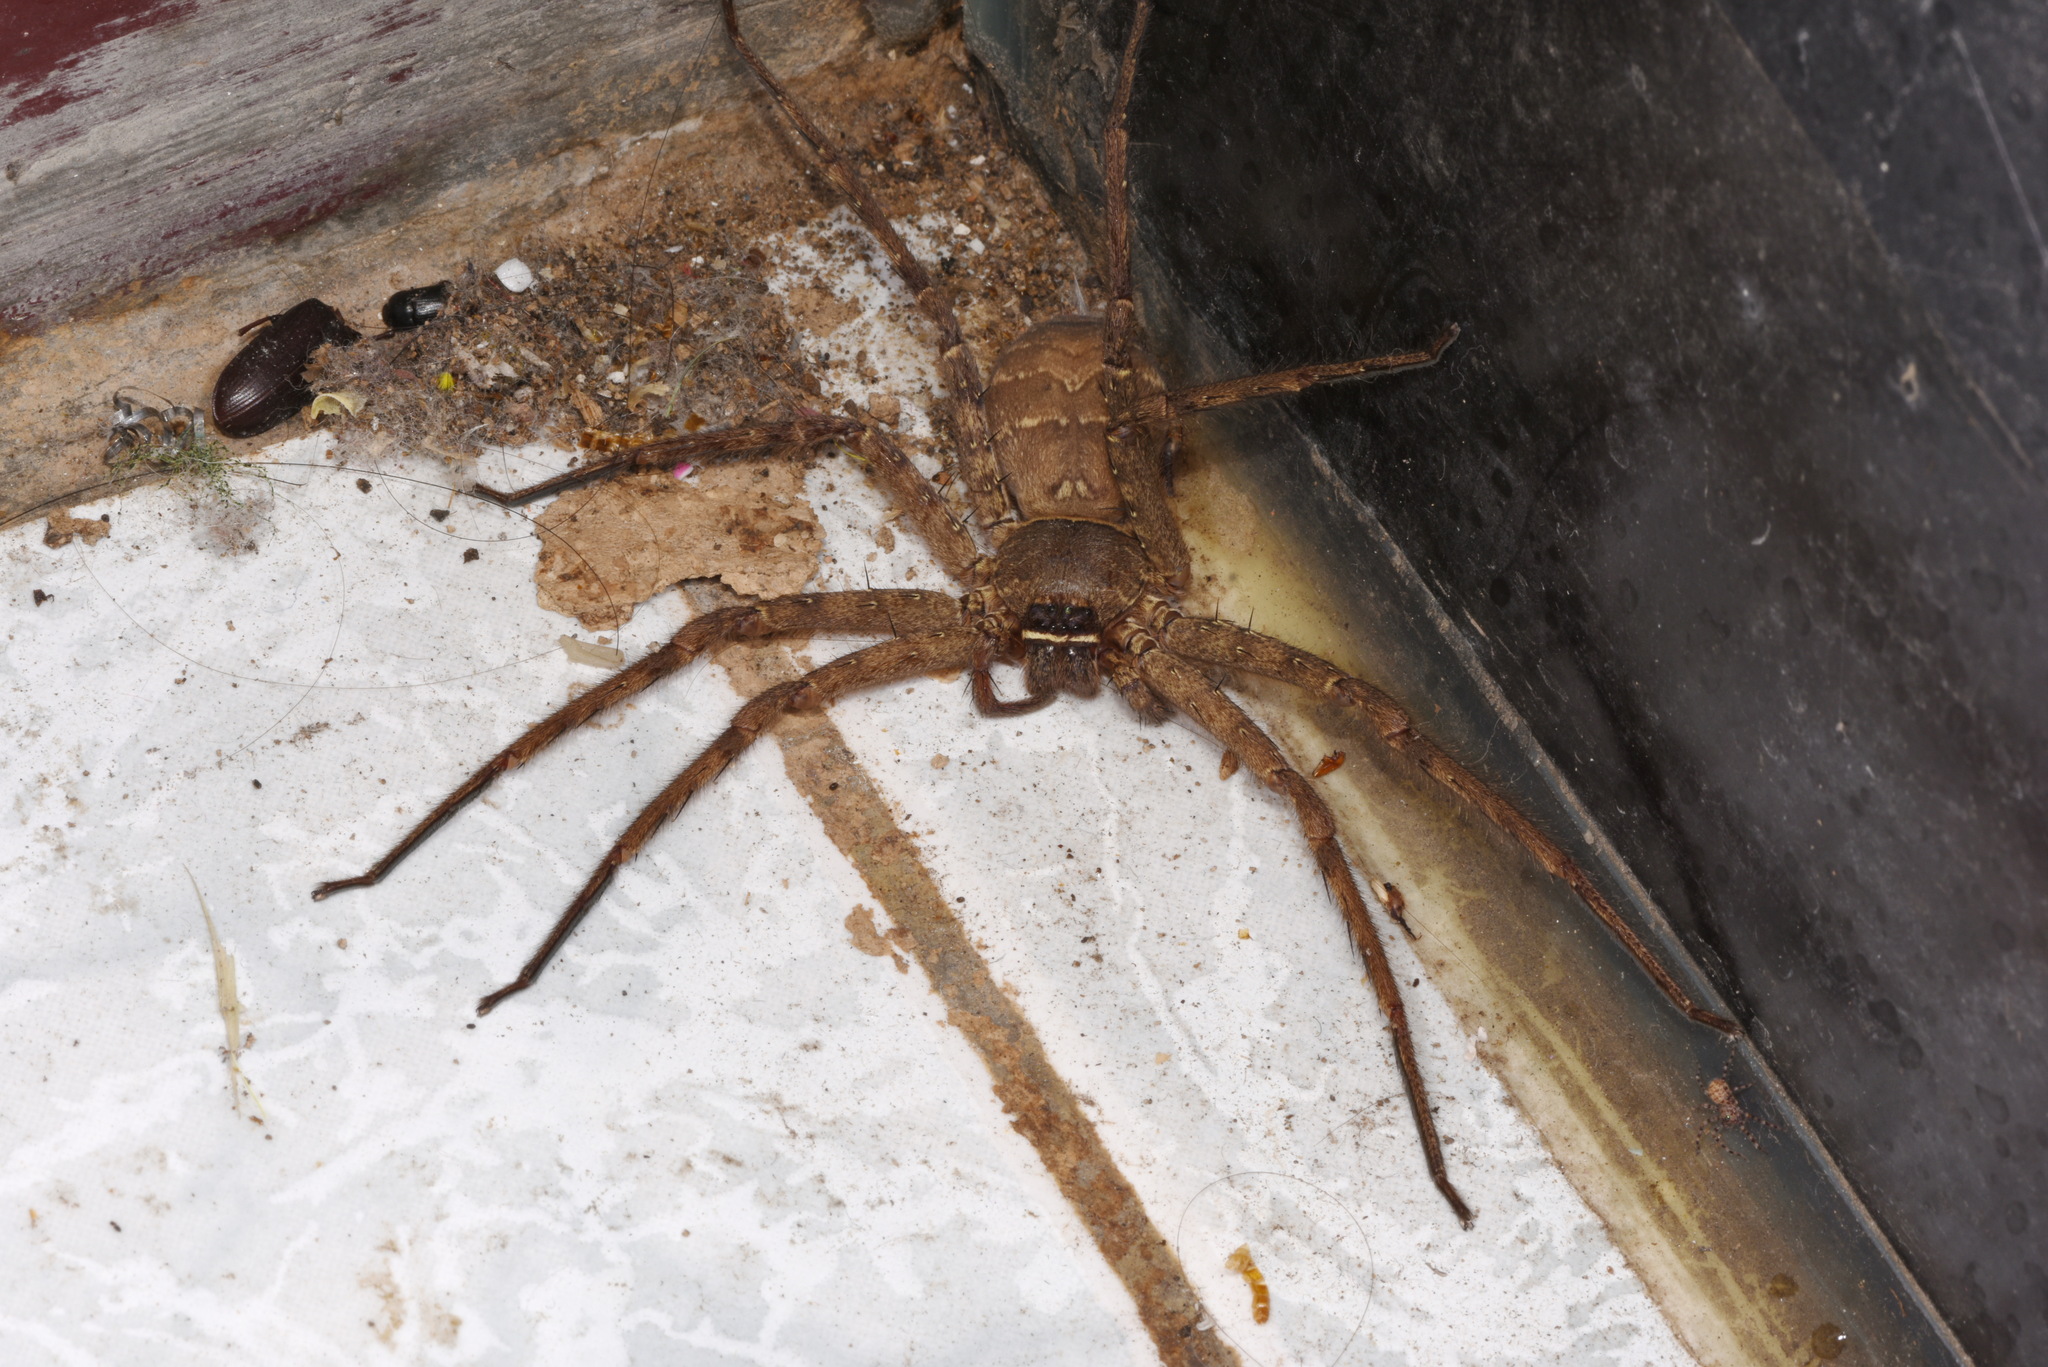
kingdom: Animalia
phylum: Arthropoda
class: Arachnida
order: Araneae
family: Sparassidae
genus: Heteropoda
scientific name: Heteropoda venatoria
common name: Huntsman spider
